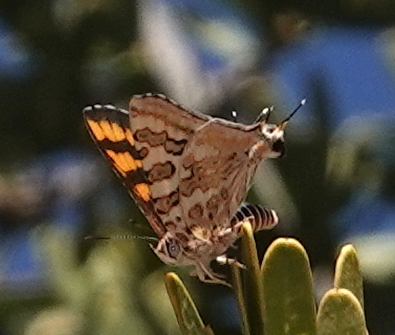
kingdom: Animalia
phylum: Arthropoda
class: Insecta
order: Lepidoptera
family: Lycaenidae
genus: Spindasis
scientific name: Spindasis ella
